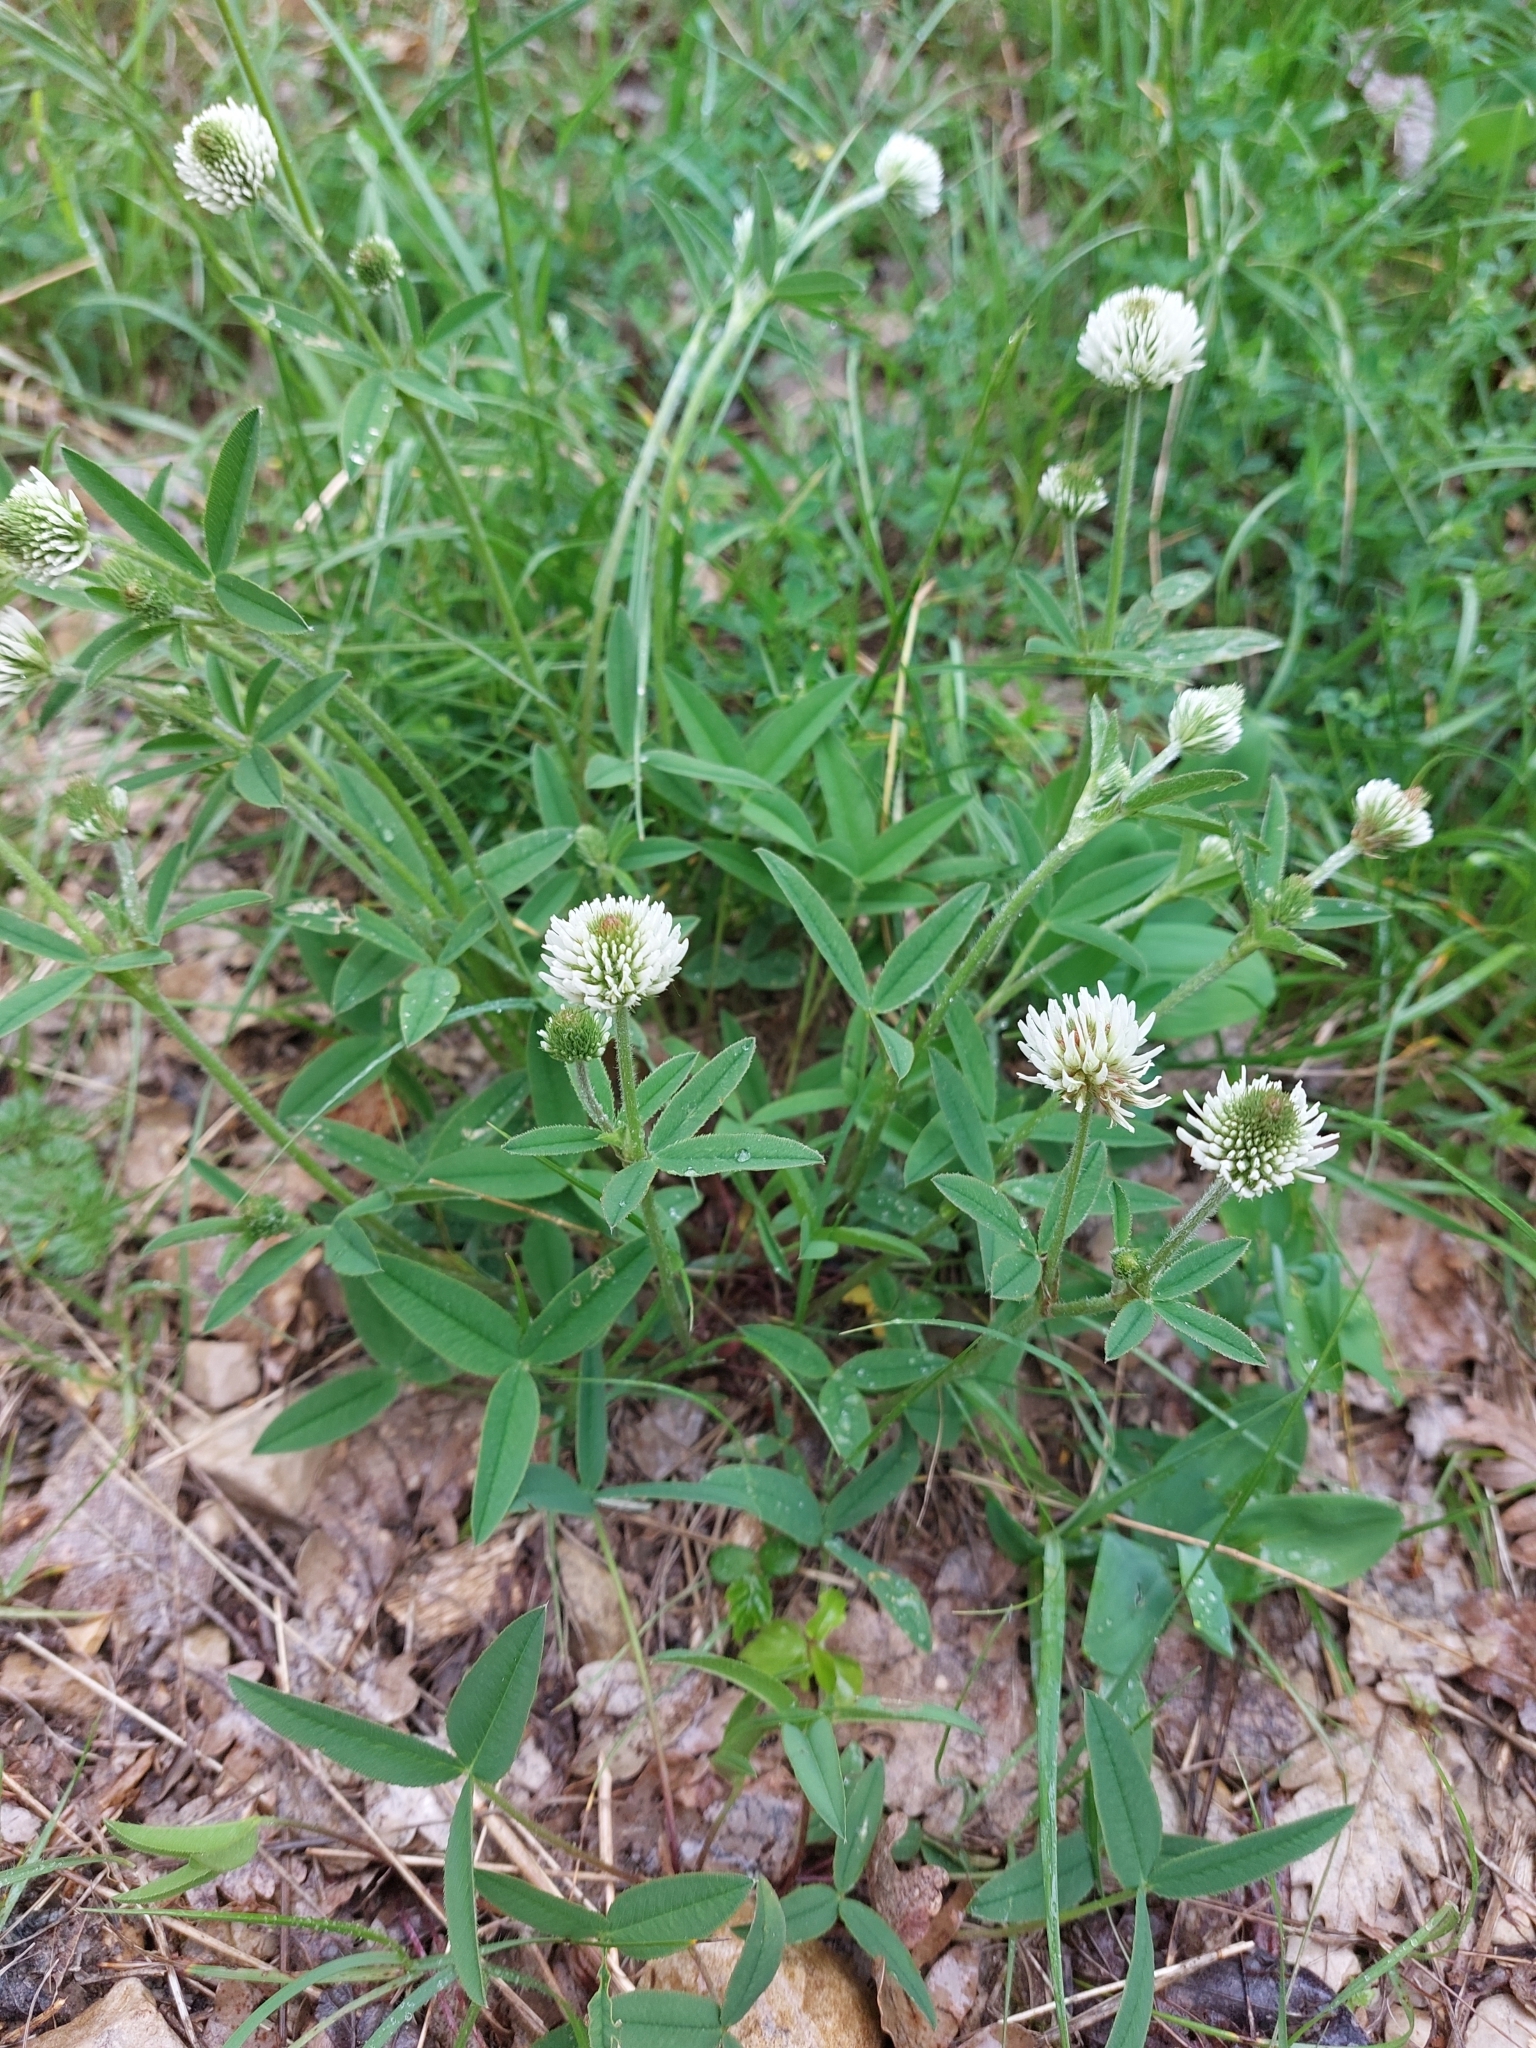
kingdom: Plantae
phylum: Tracheophyta
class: Magnoliopsida
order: Fabales
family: Fabaceae
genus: Trifolium
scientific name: Trifolium montanum
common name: Mountain clover
